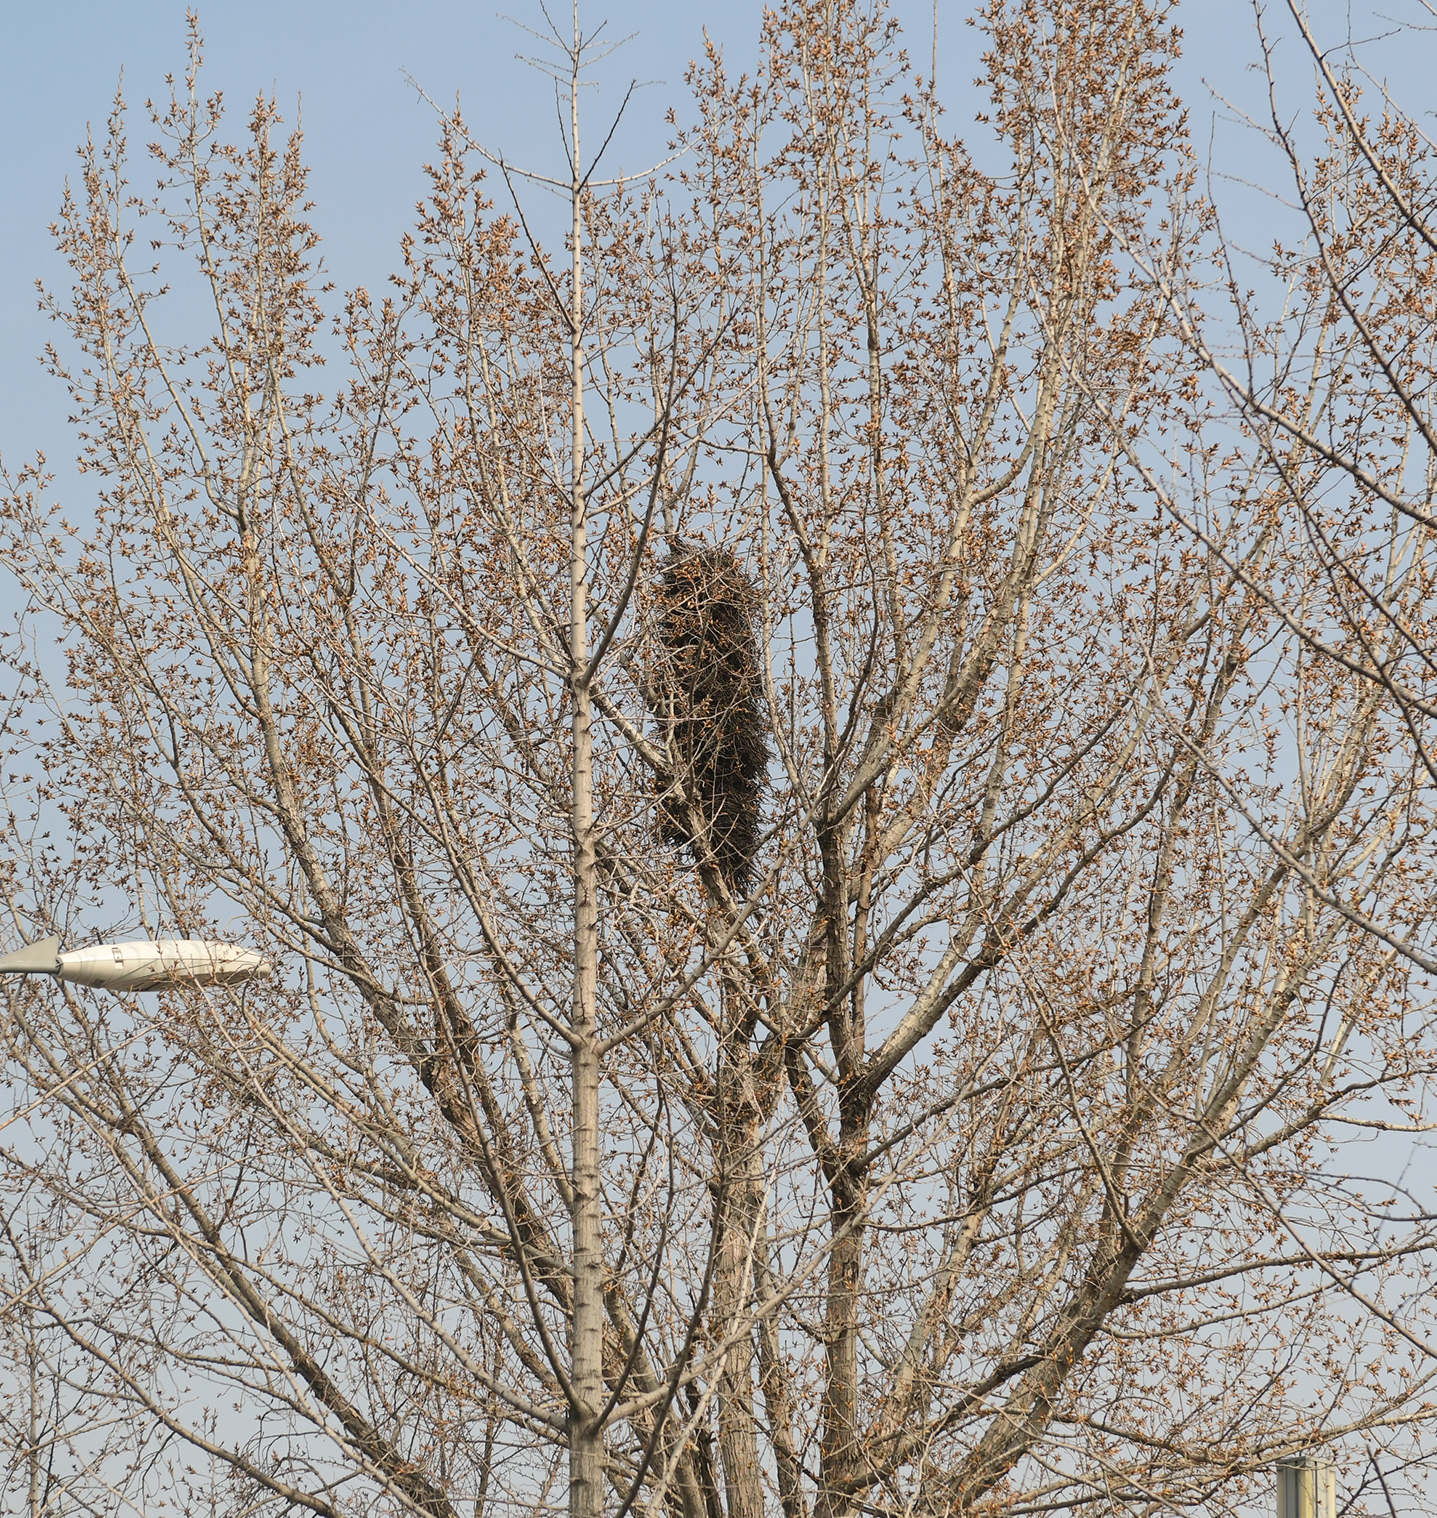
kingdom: Animalia
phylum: Chordata
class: Aves
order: Passeriformes
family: Corvidae
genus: Pica
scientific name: Pica serica
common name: Oriental magpie
